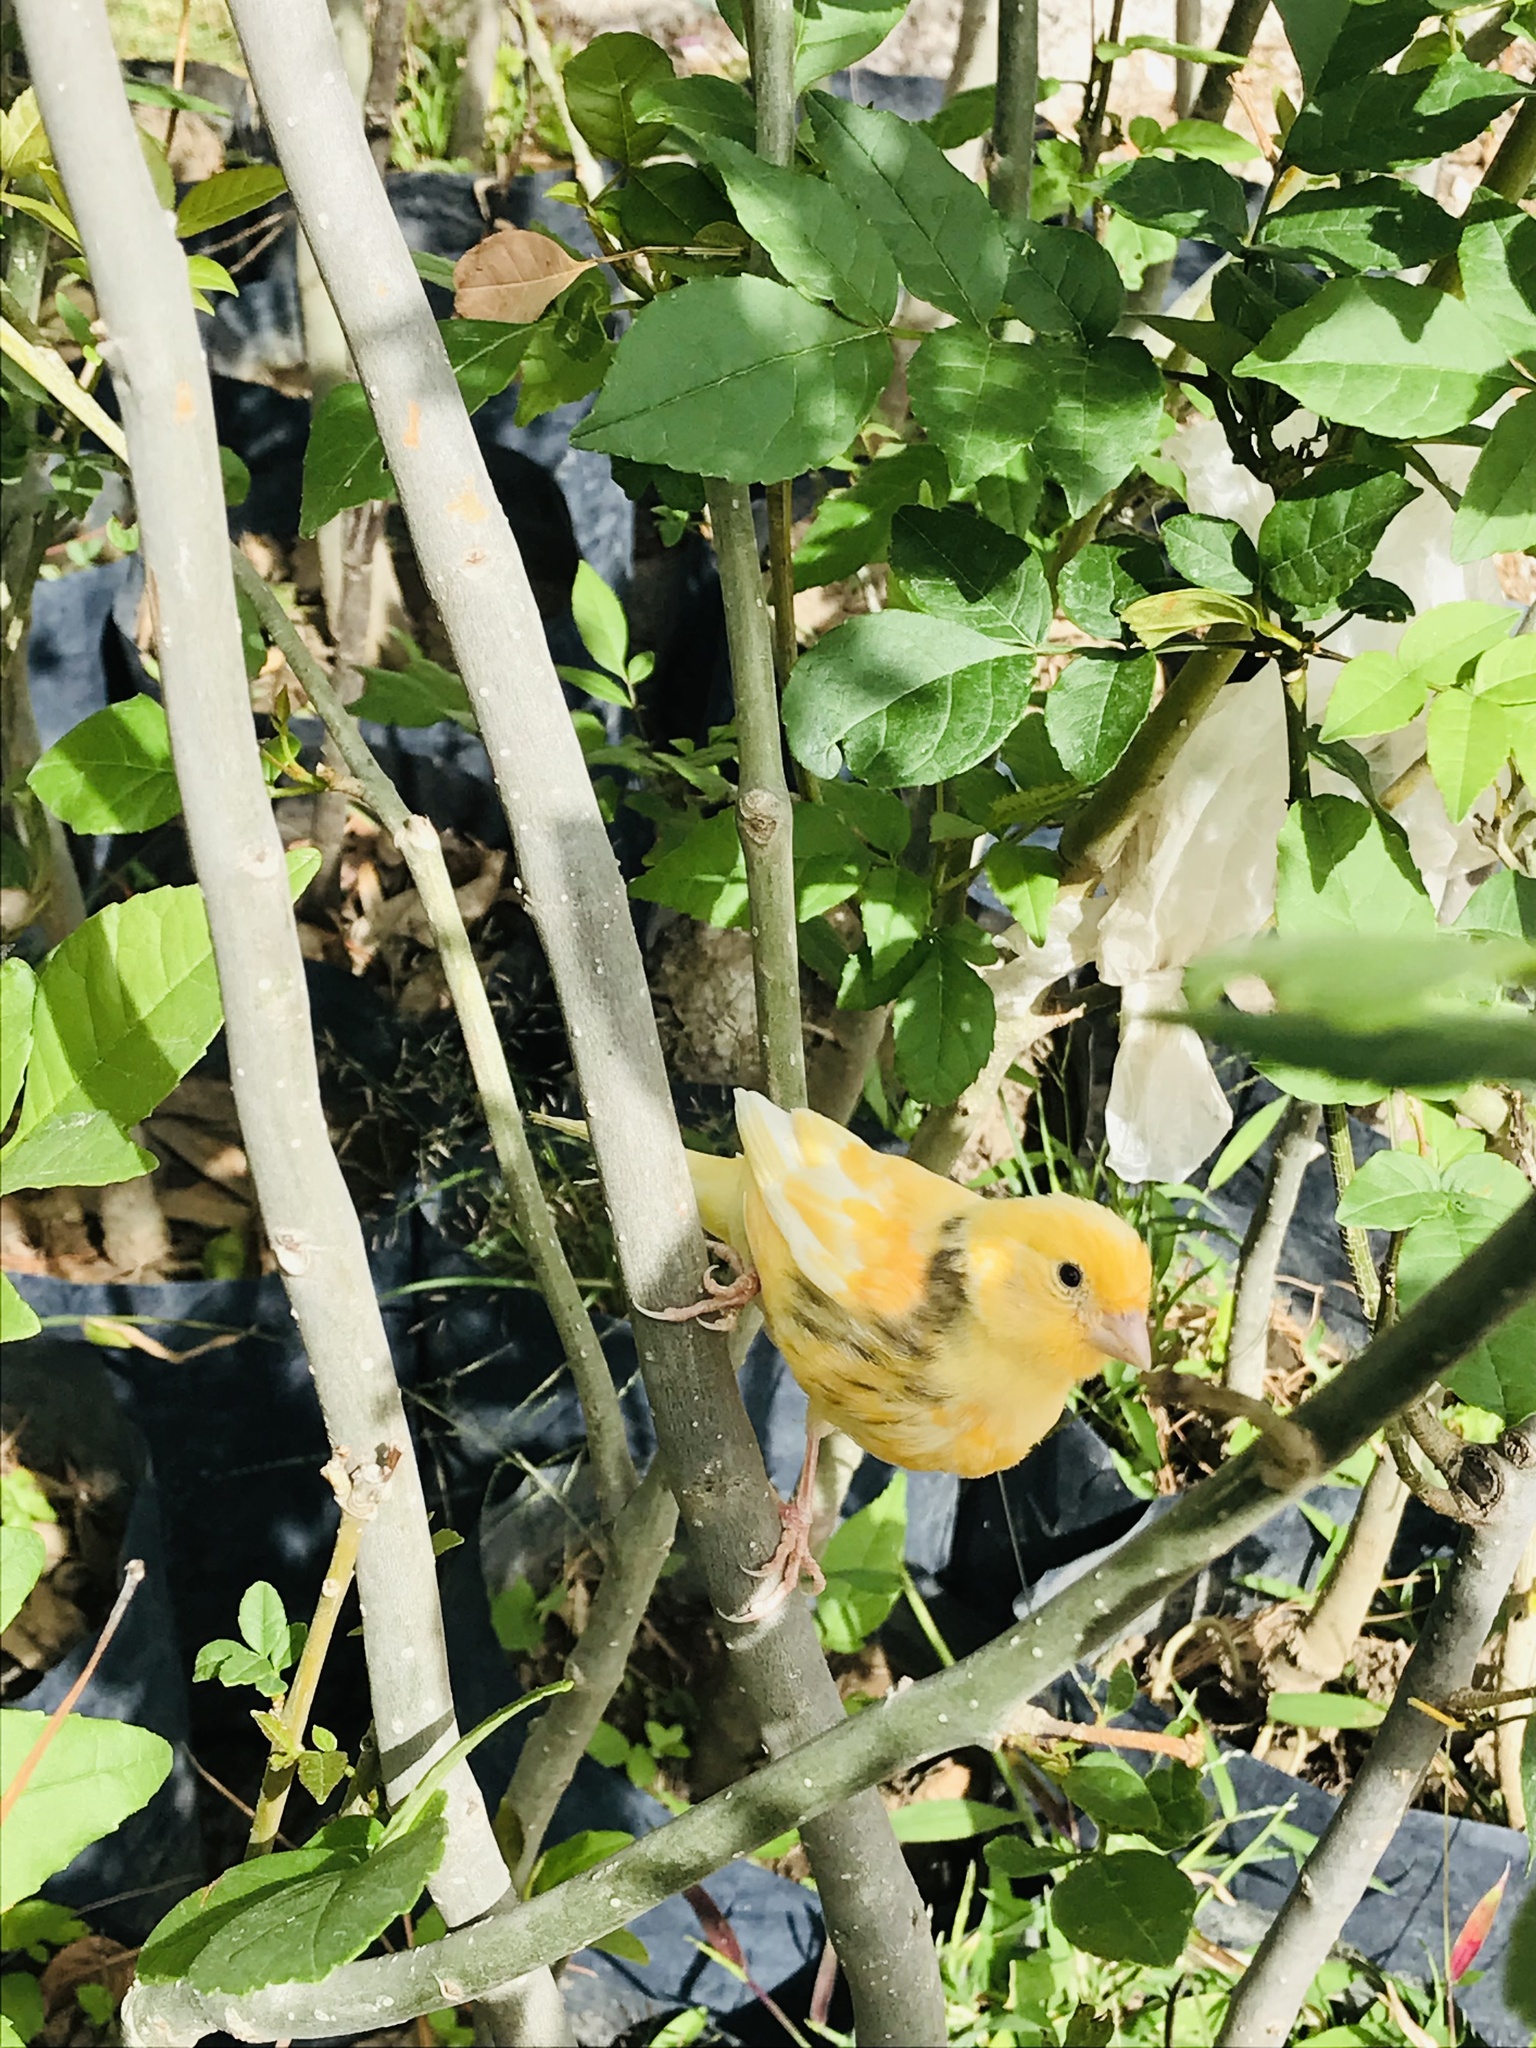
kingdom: Animalia
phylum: Chordata
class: Aves
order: Passeriformes
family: Fringillidae
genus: Serinus
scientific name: Serinus canaria
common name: Atlantic canary
